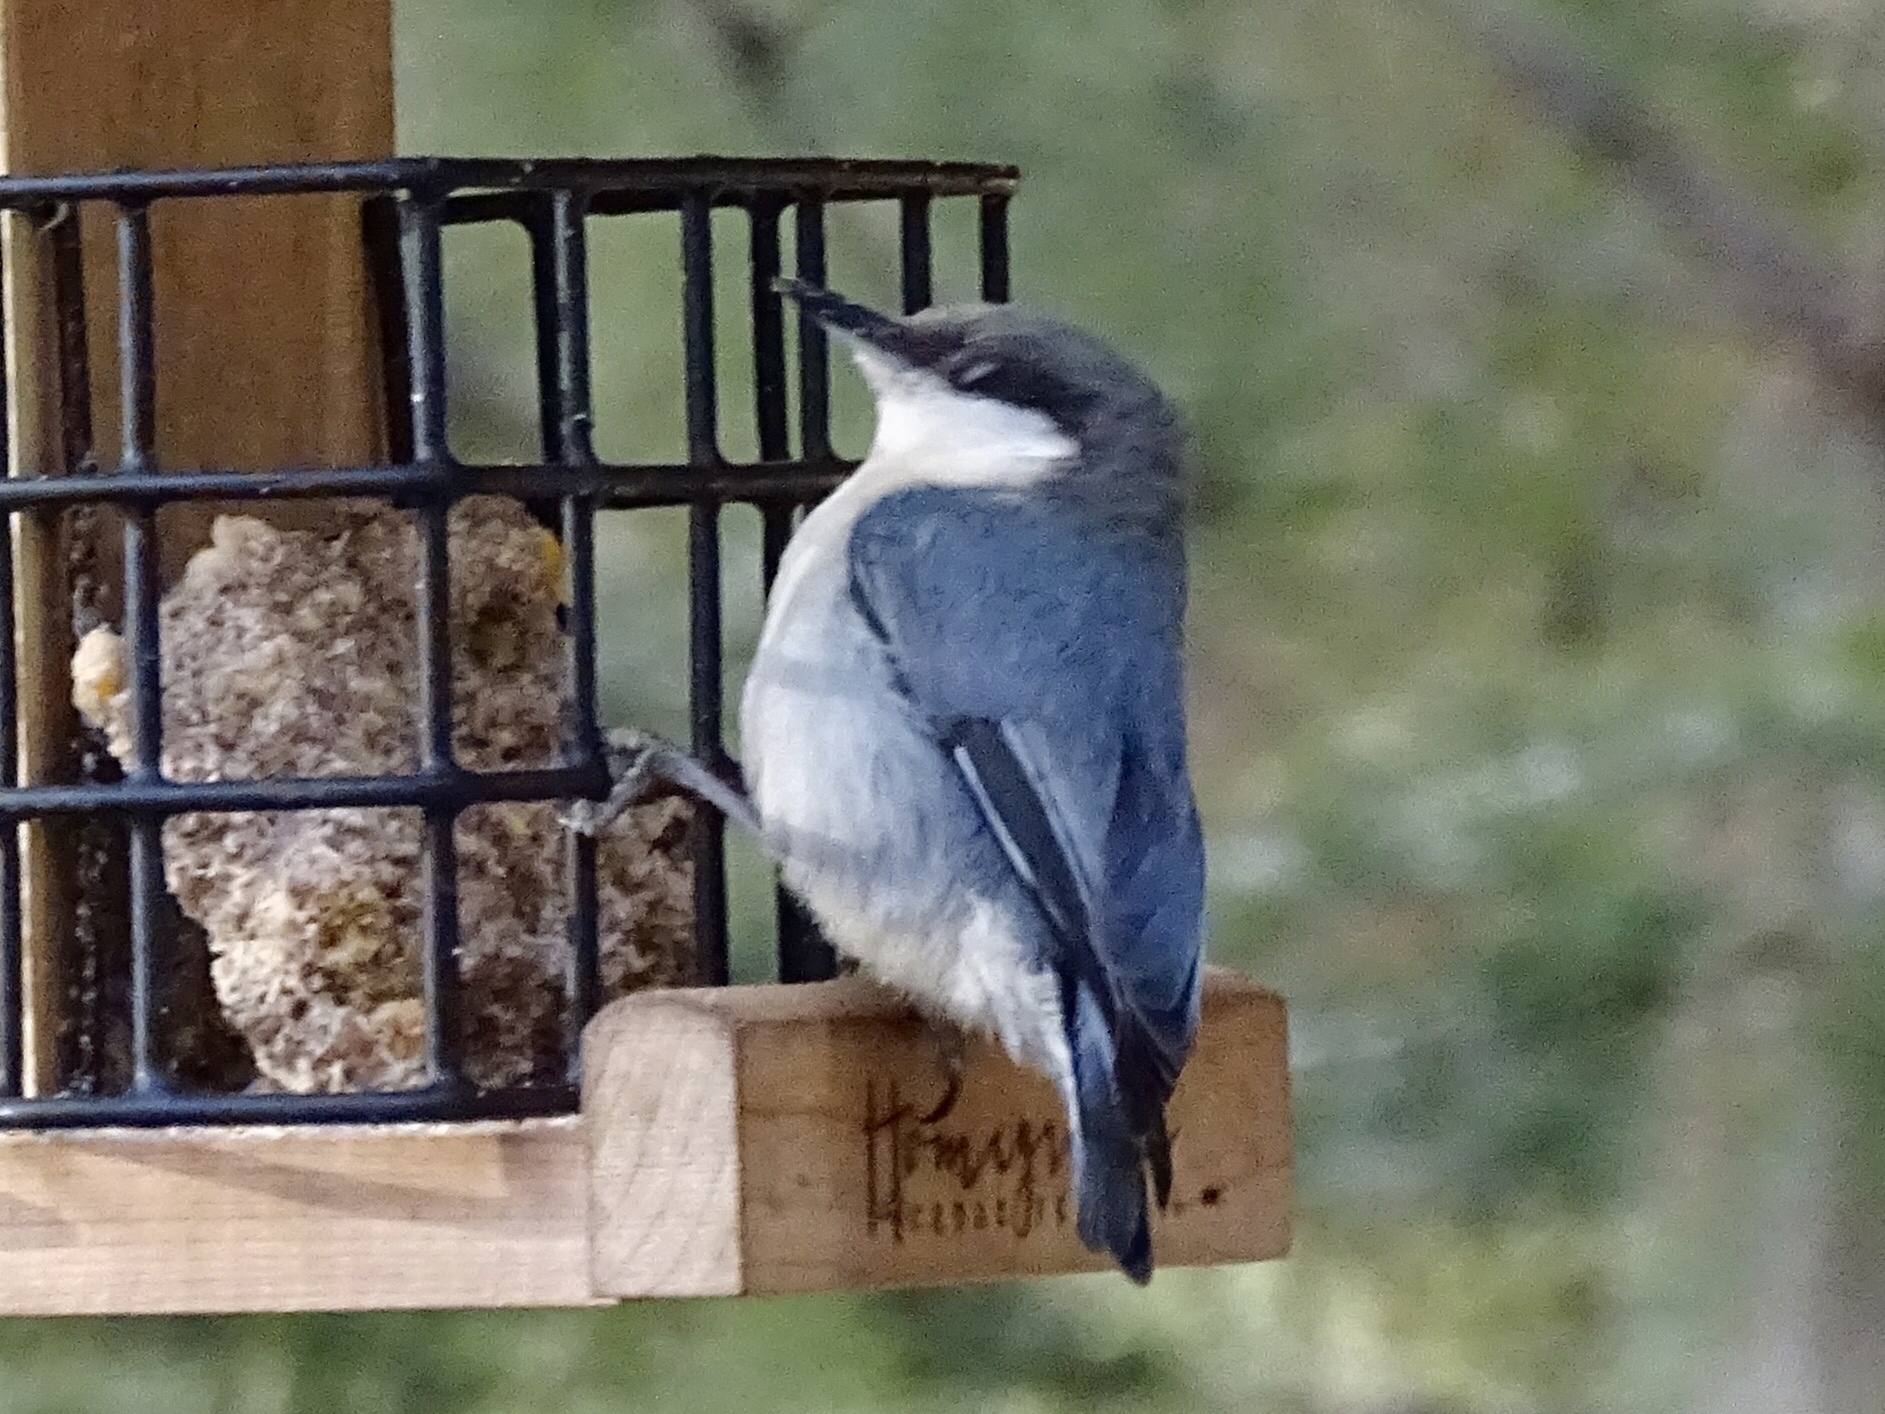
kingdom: Animalia
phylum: Chordata
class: Aves
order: Passeriformes
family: Sittidae
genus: Sitta
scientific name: Sitta pygmaea
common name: Pygmy nuthatch
